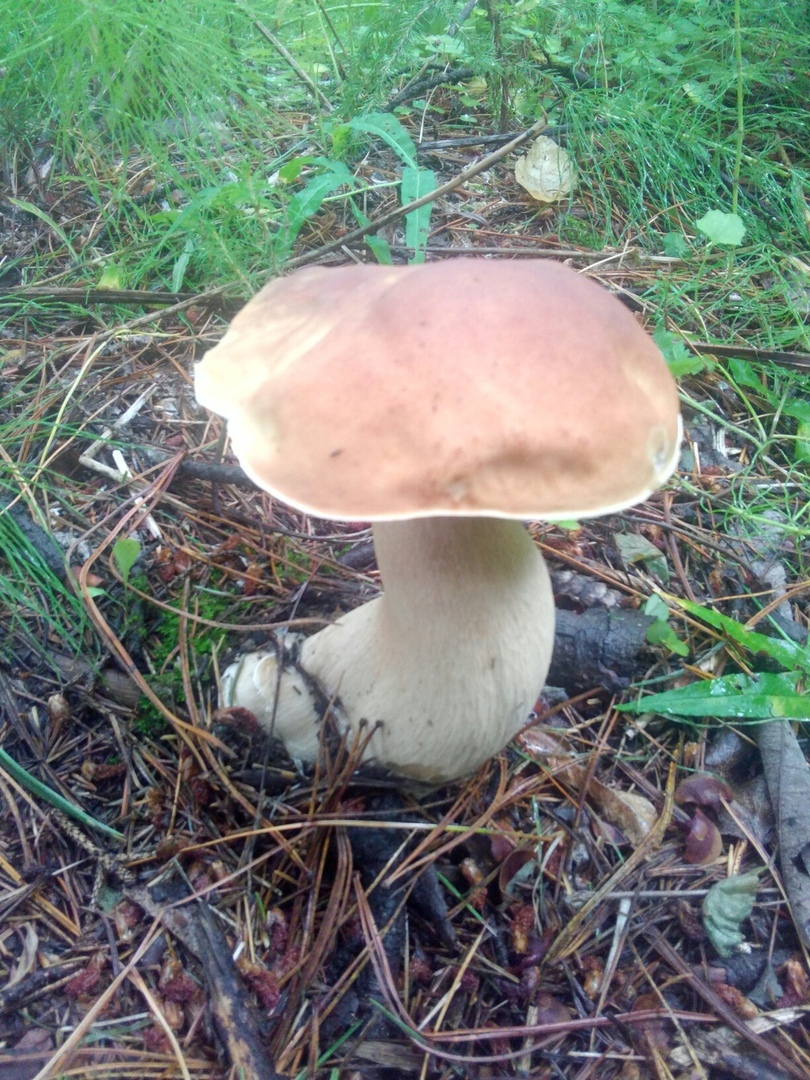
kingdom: Fungi
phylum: Basidiomycota
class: Agaricomycetes
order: Boletales
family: Boletaceae
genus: Boletus
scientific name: Boletus edulis
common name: Cep
